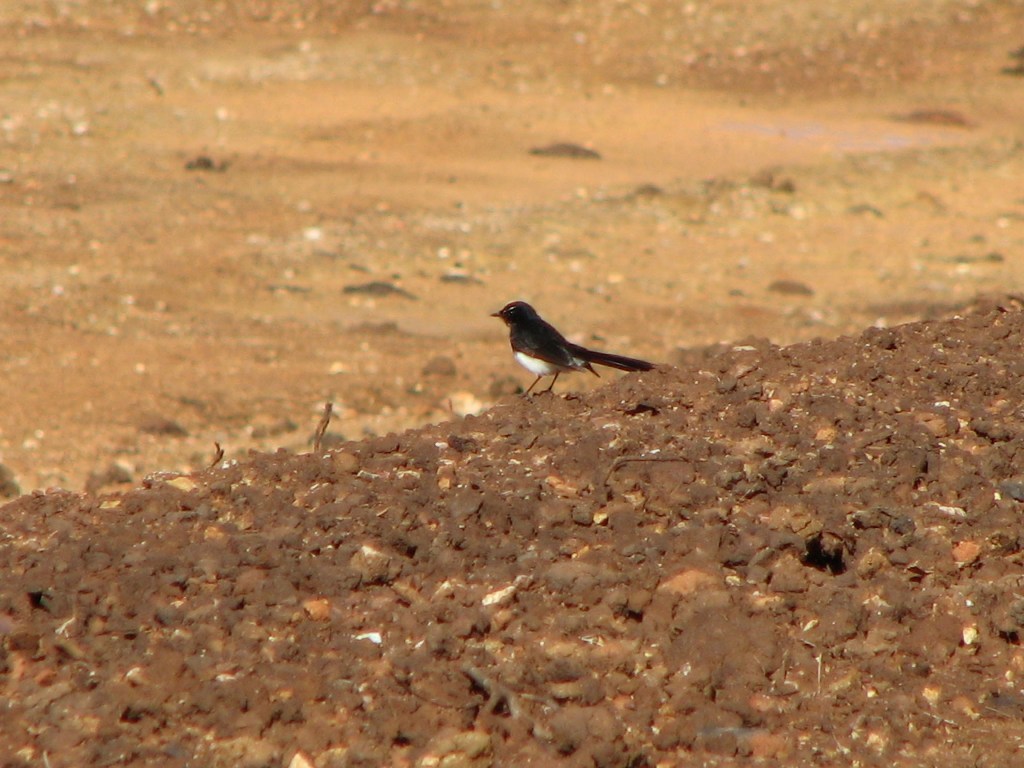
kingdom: Animalia
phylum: Chordata
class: Aves
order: Passeriformes
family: Rhipiduridae
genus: Rhipidura
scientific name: Rhipidura leucophrys
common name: Willie wagtail
